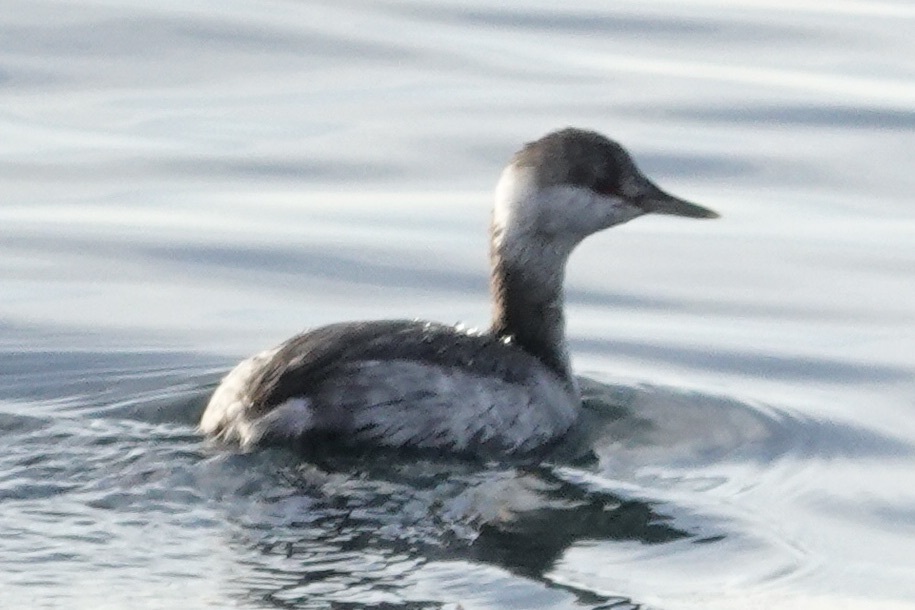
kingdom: Animalia
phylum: Chordata
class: Aves
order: Podicipediformes
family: Podicipedidae
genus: Podiceps
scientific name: Podiceps auritus
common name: Horned grebe
